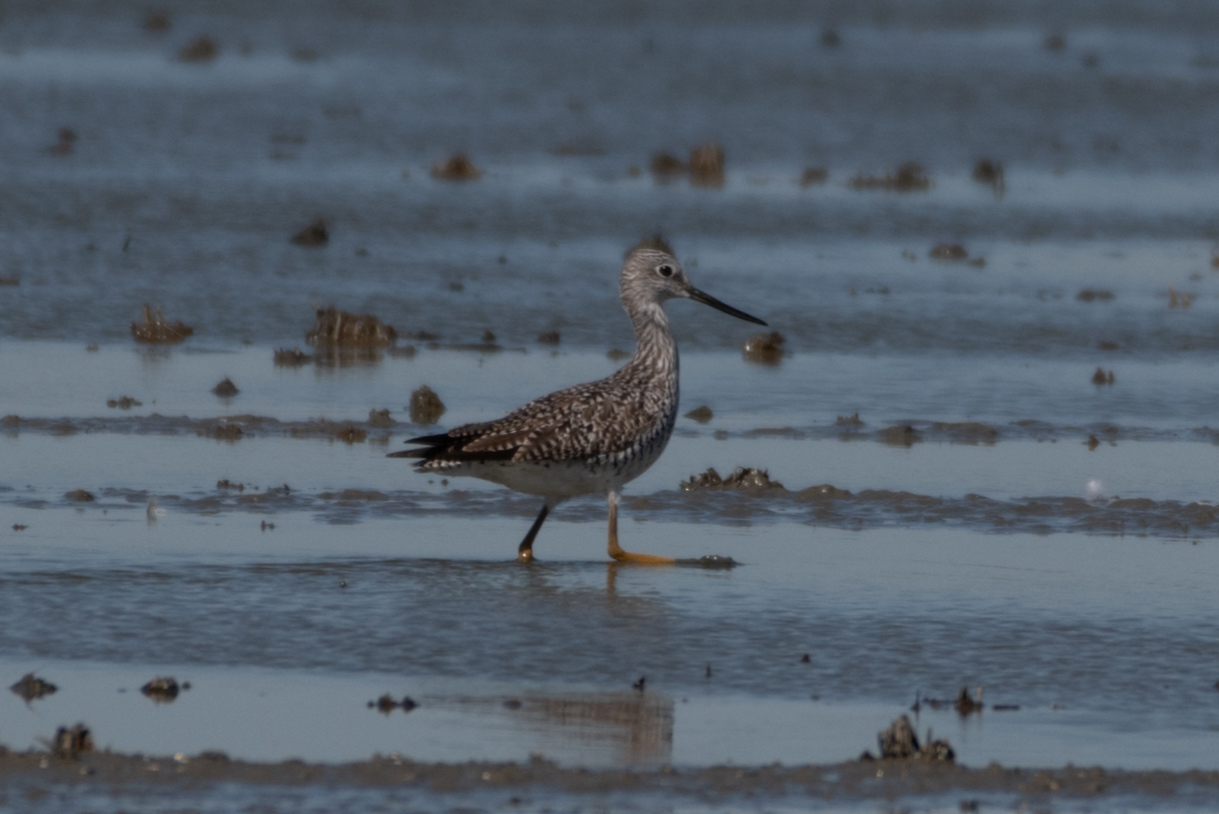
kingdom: Animalia
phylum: Chordata
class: Aves
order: Charadriiformes
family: Scolopacidae
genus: Tringa
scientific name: Tringa melanoleuca
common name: Greater yellowlegs
